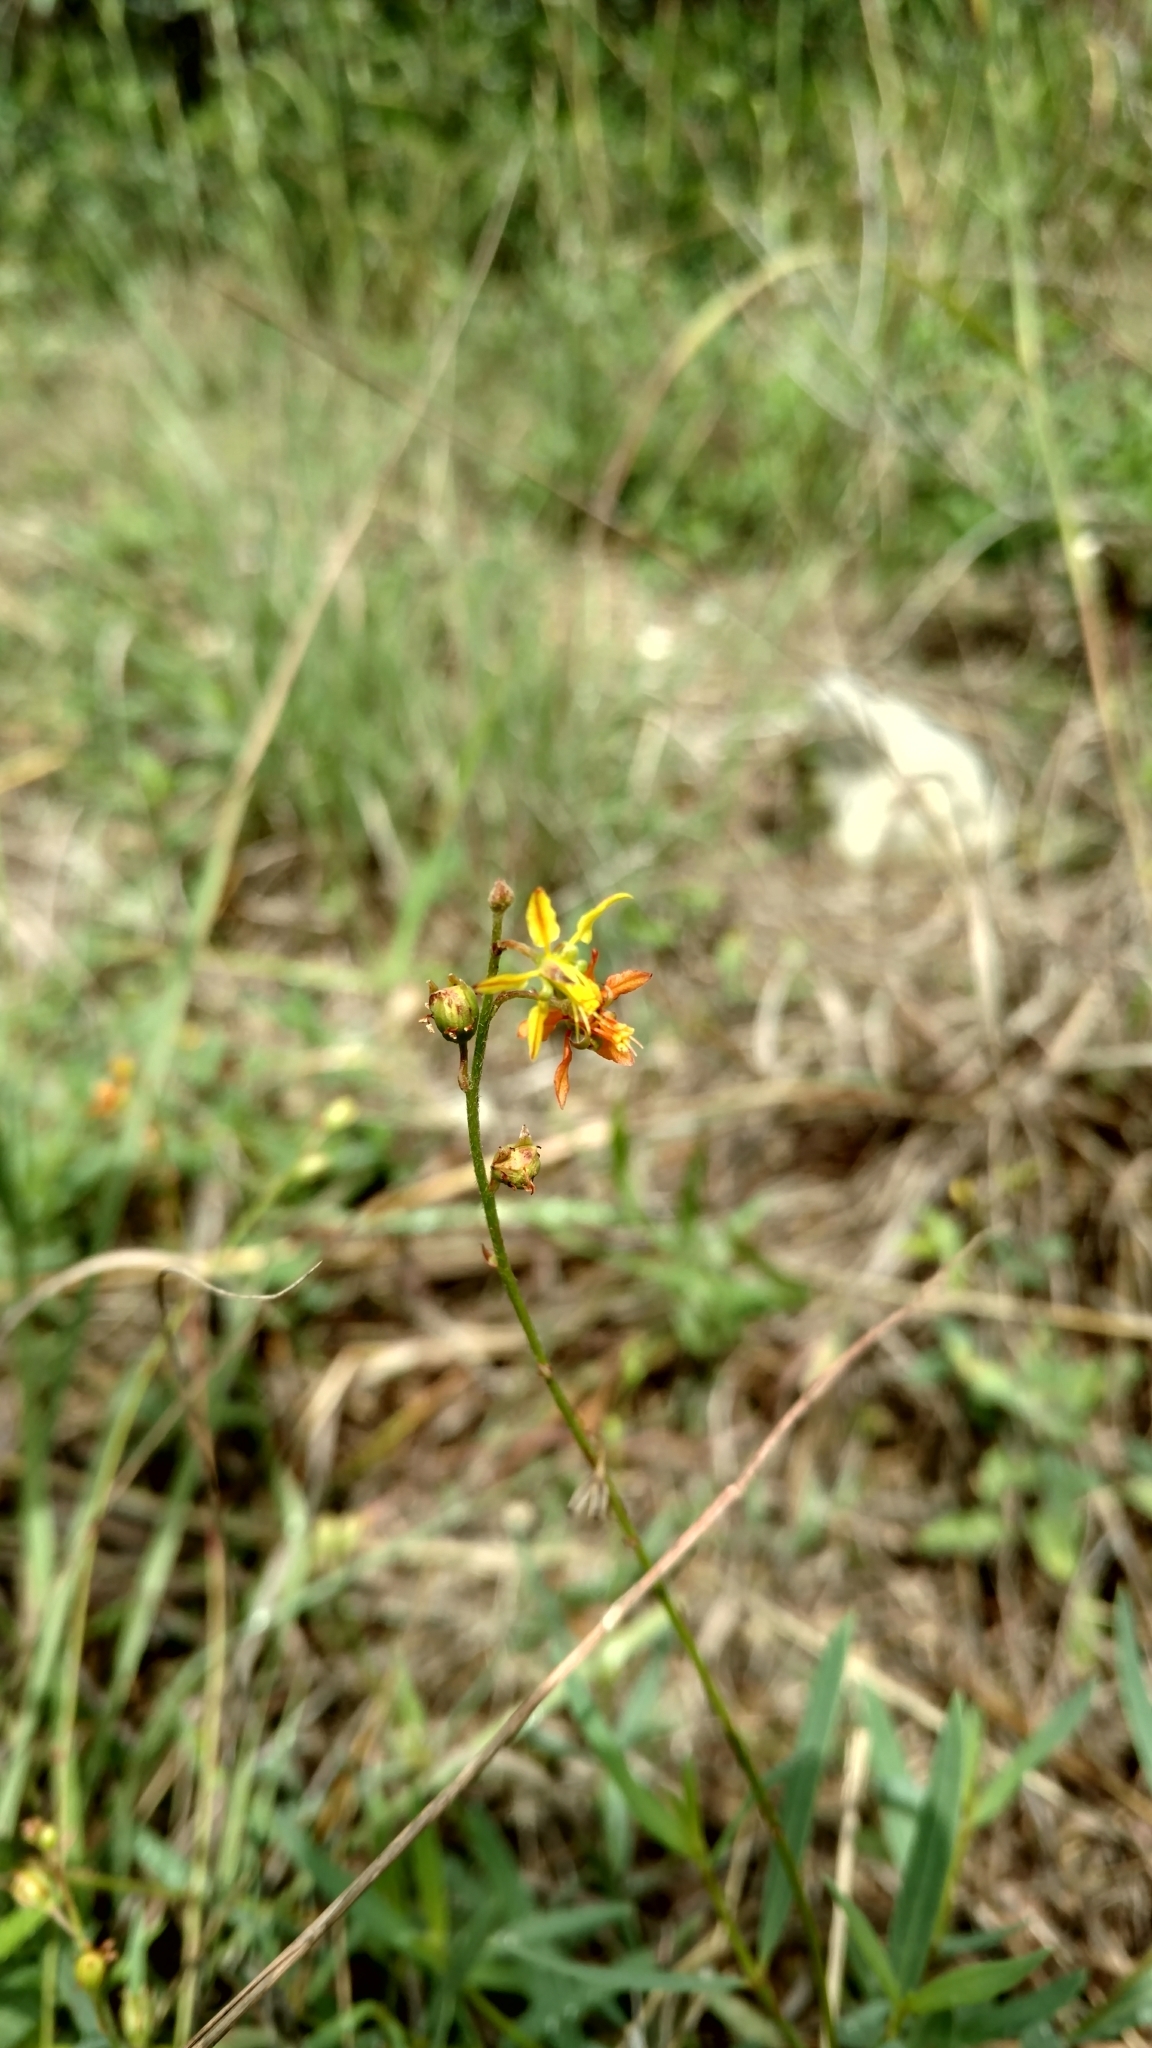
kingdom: Plantae
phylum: Tracheophyta
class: Magnoliopsida
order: Malpighiales
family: Malpighiaceae
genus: Galphimia
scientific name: Galphimia angustifolia
